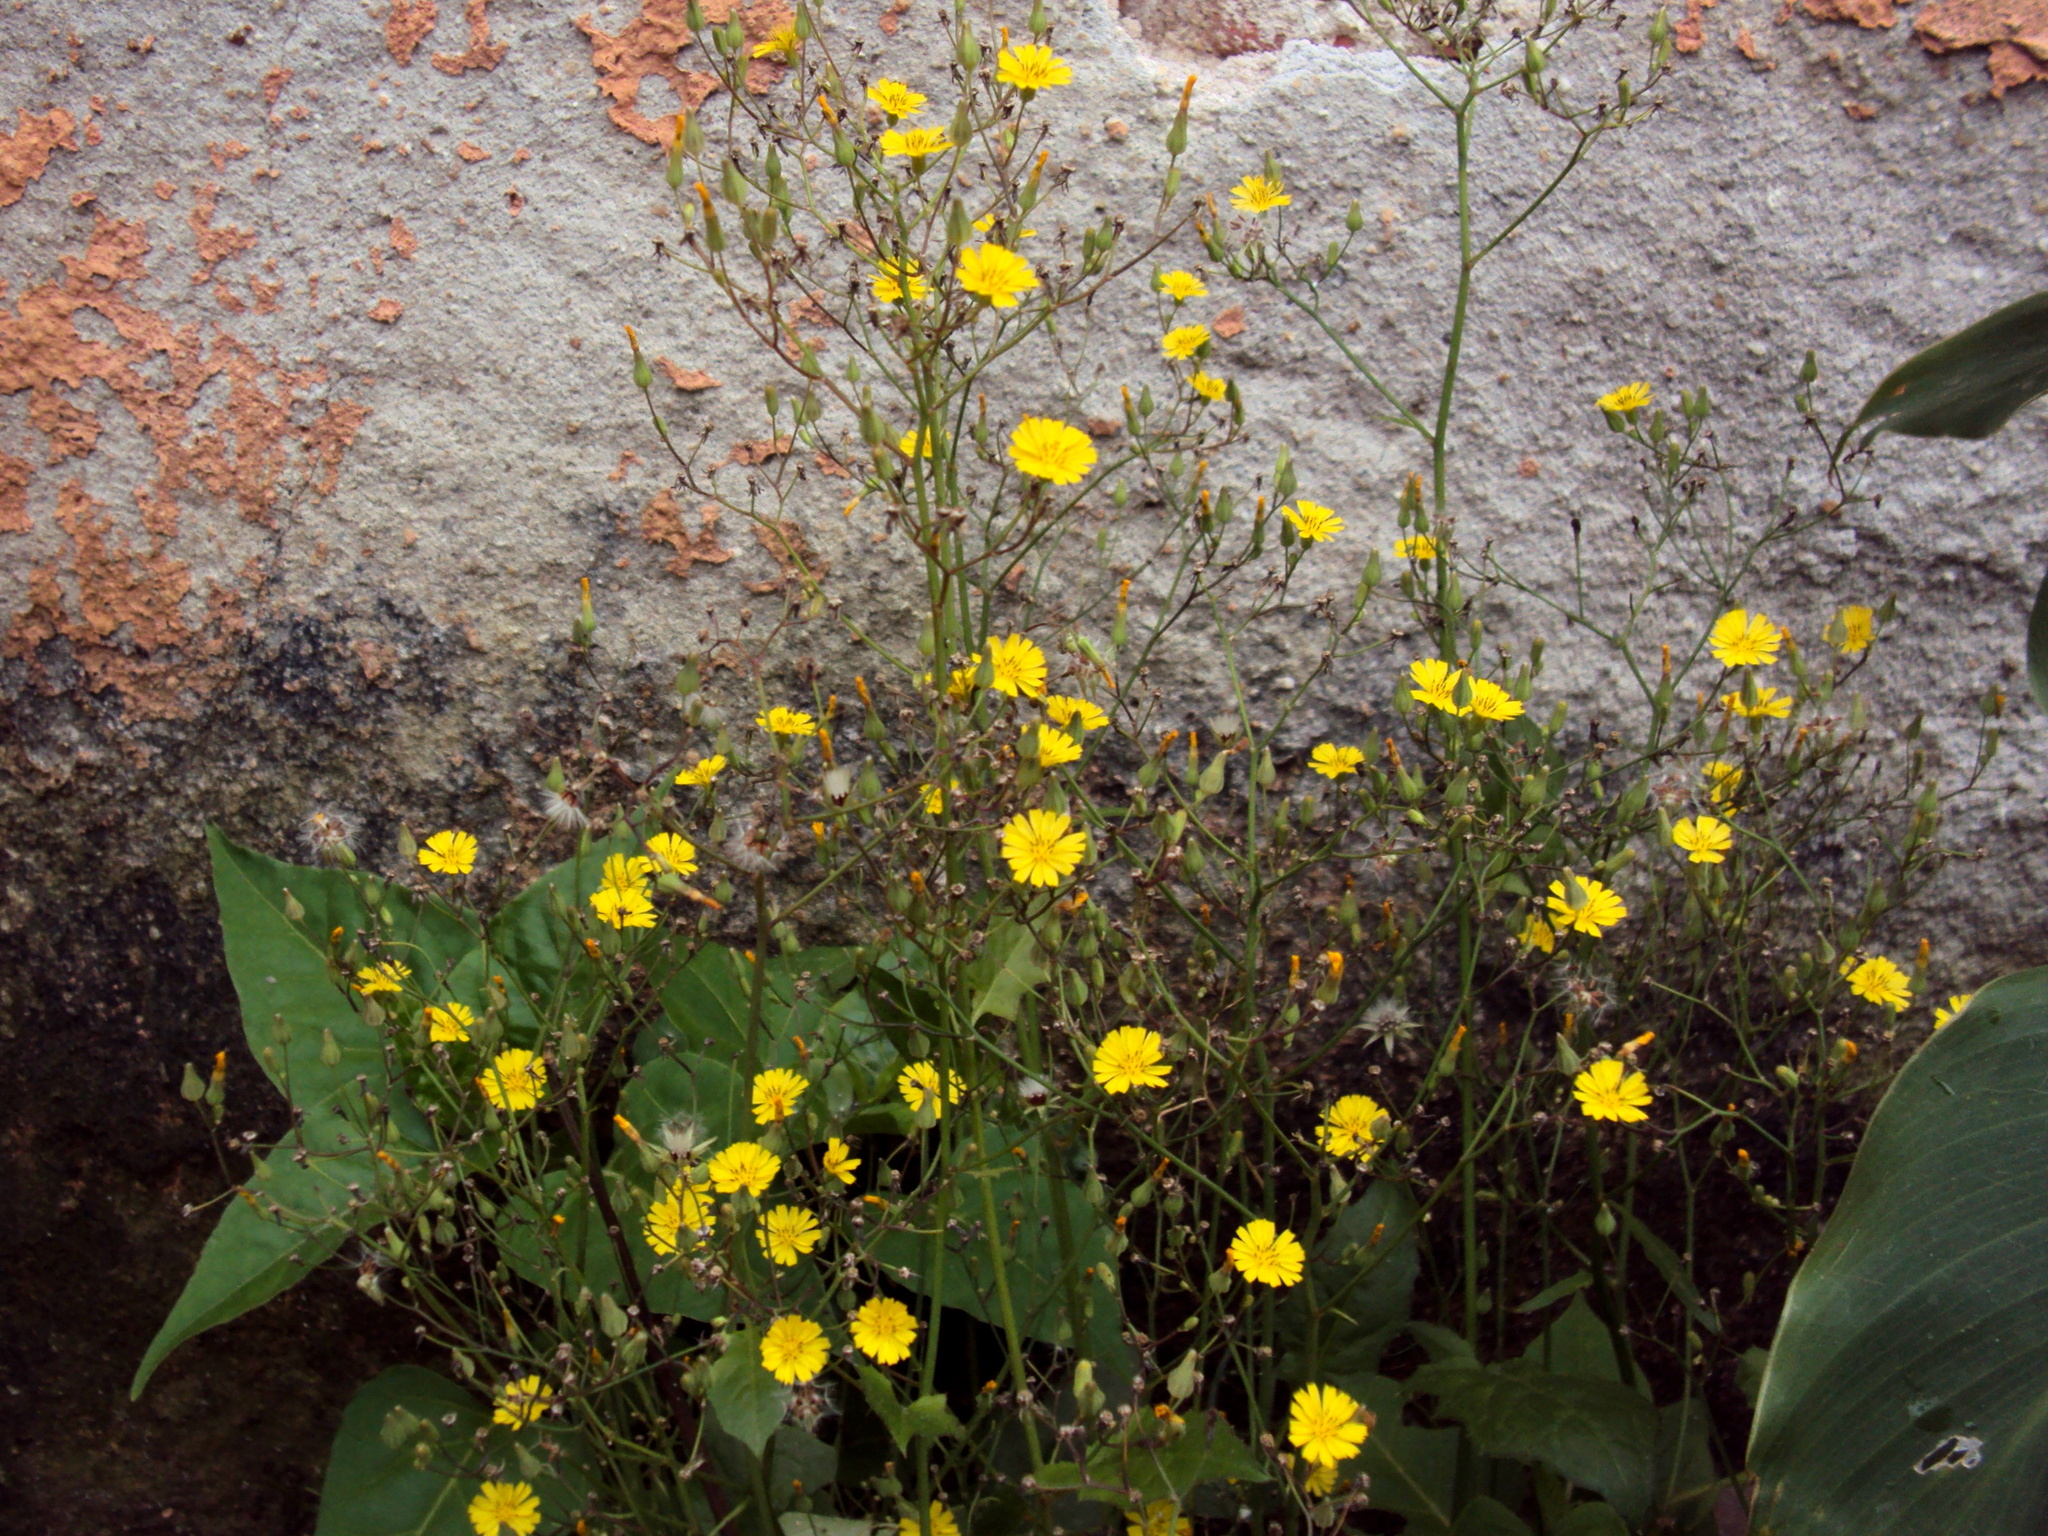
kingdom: Plantae
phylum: Tracheophyta
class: Magnoliopsida
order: Asterales
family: Asteraceae
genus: Youngia
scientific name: Youngia japonica
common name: Oriental false hawksbeard
